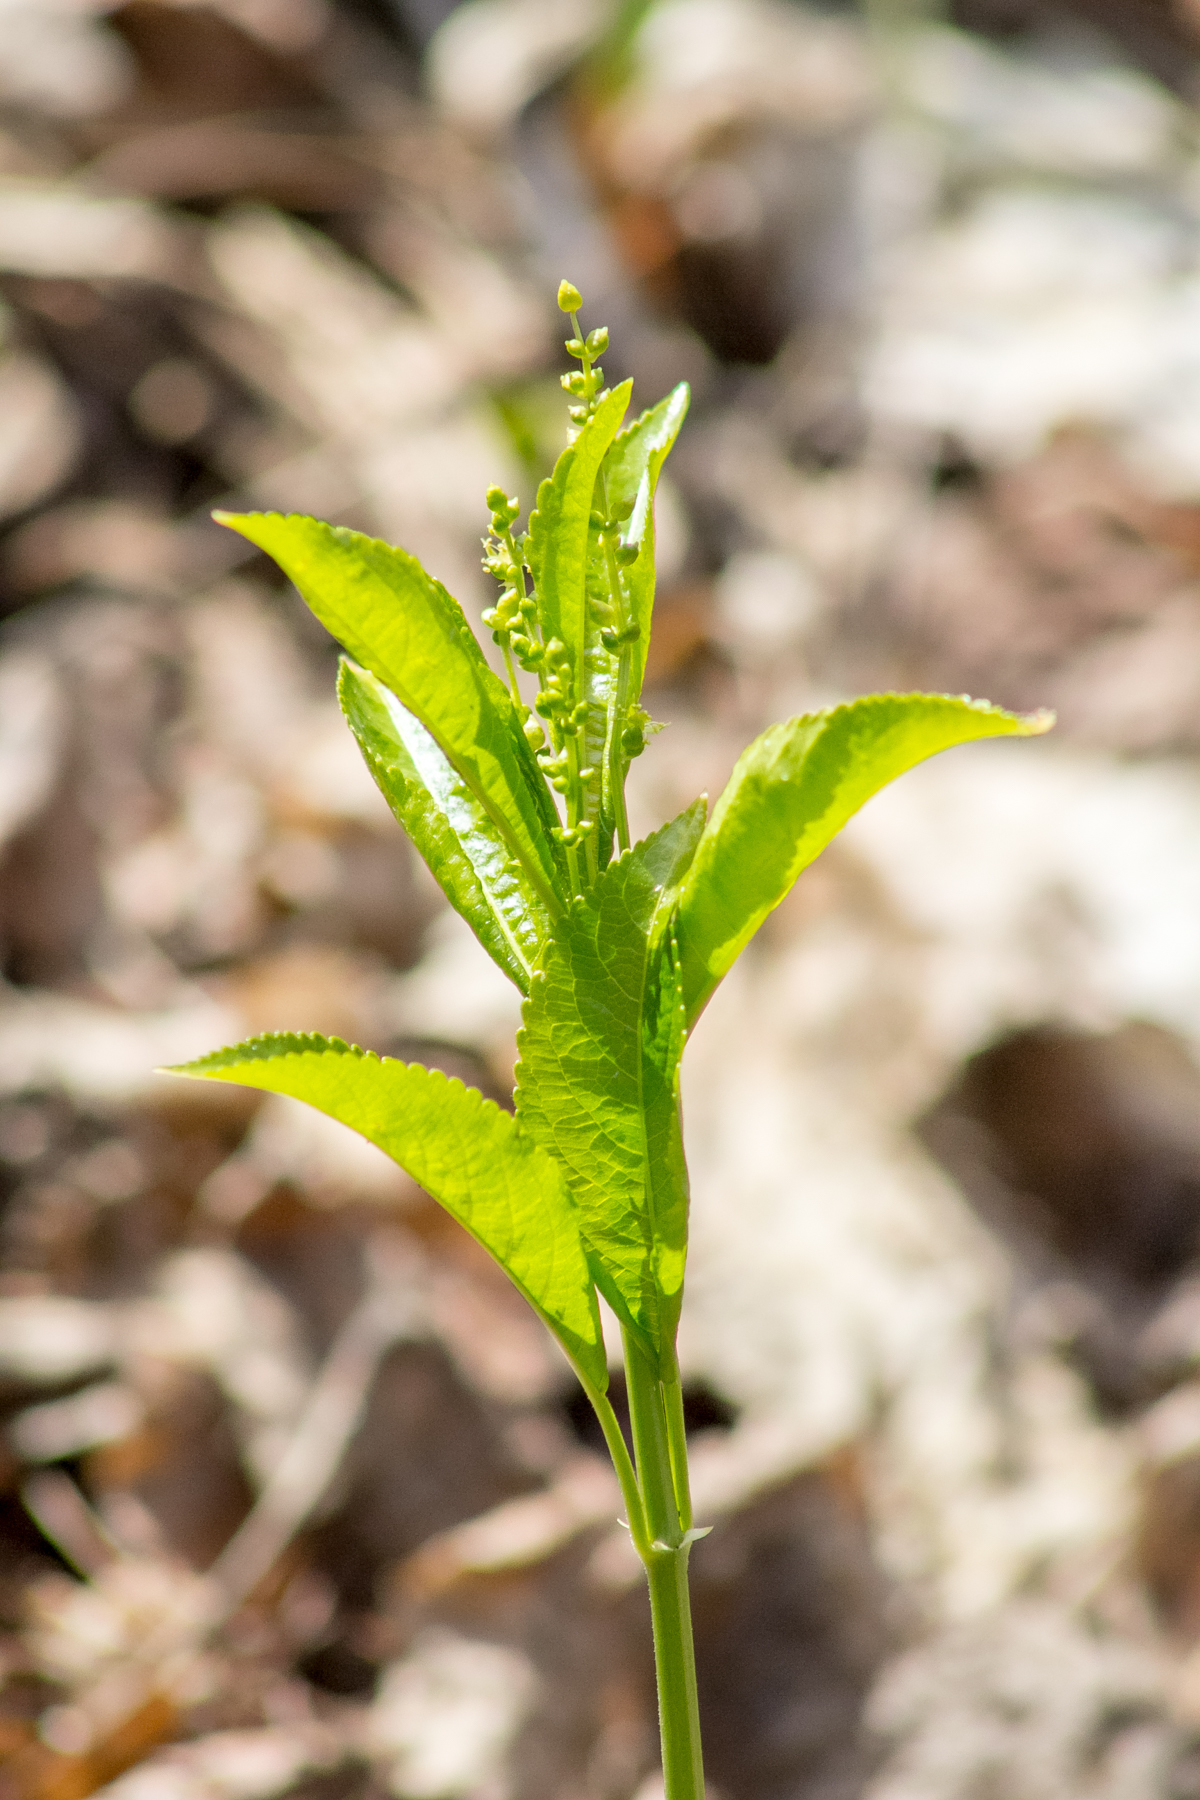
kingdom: Plantae
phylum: Tracheophyta
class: Magnoliopsida
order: Malpighiales
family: Euphorbiaceae
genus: Mercurialis
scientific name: Mercurialis perennis
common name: Dog mercury
